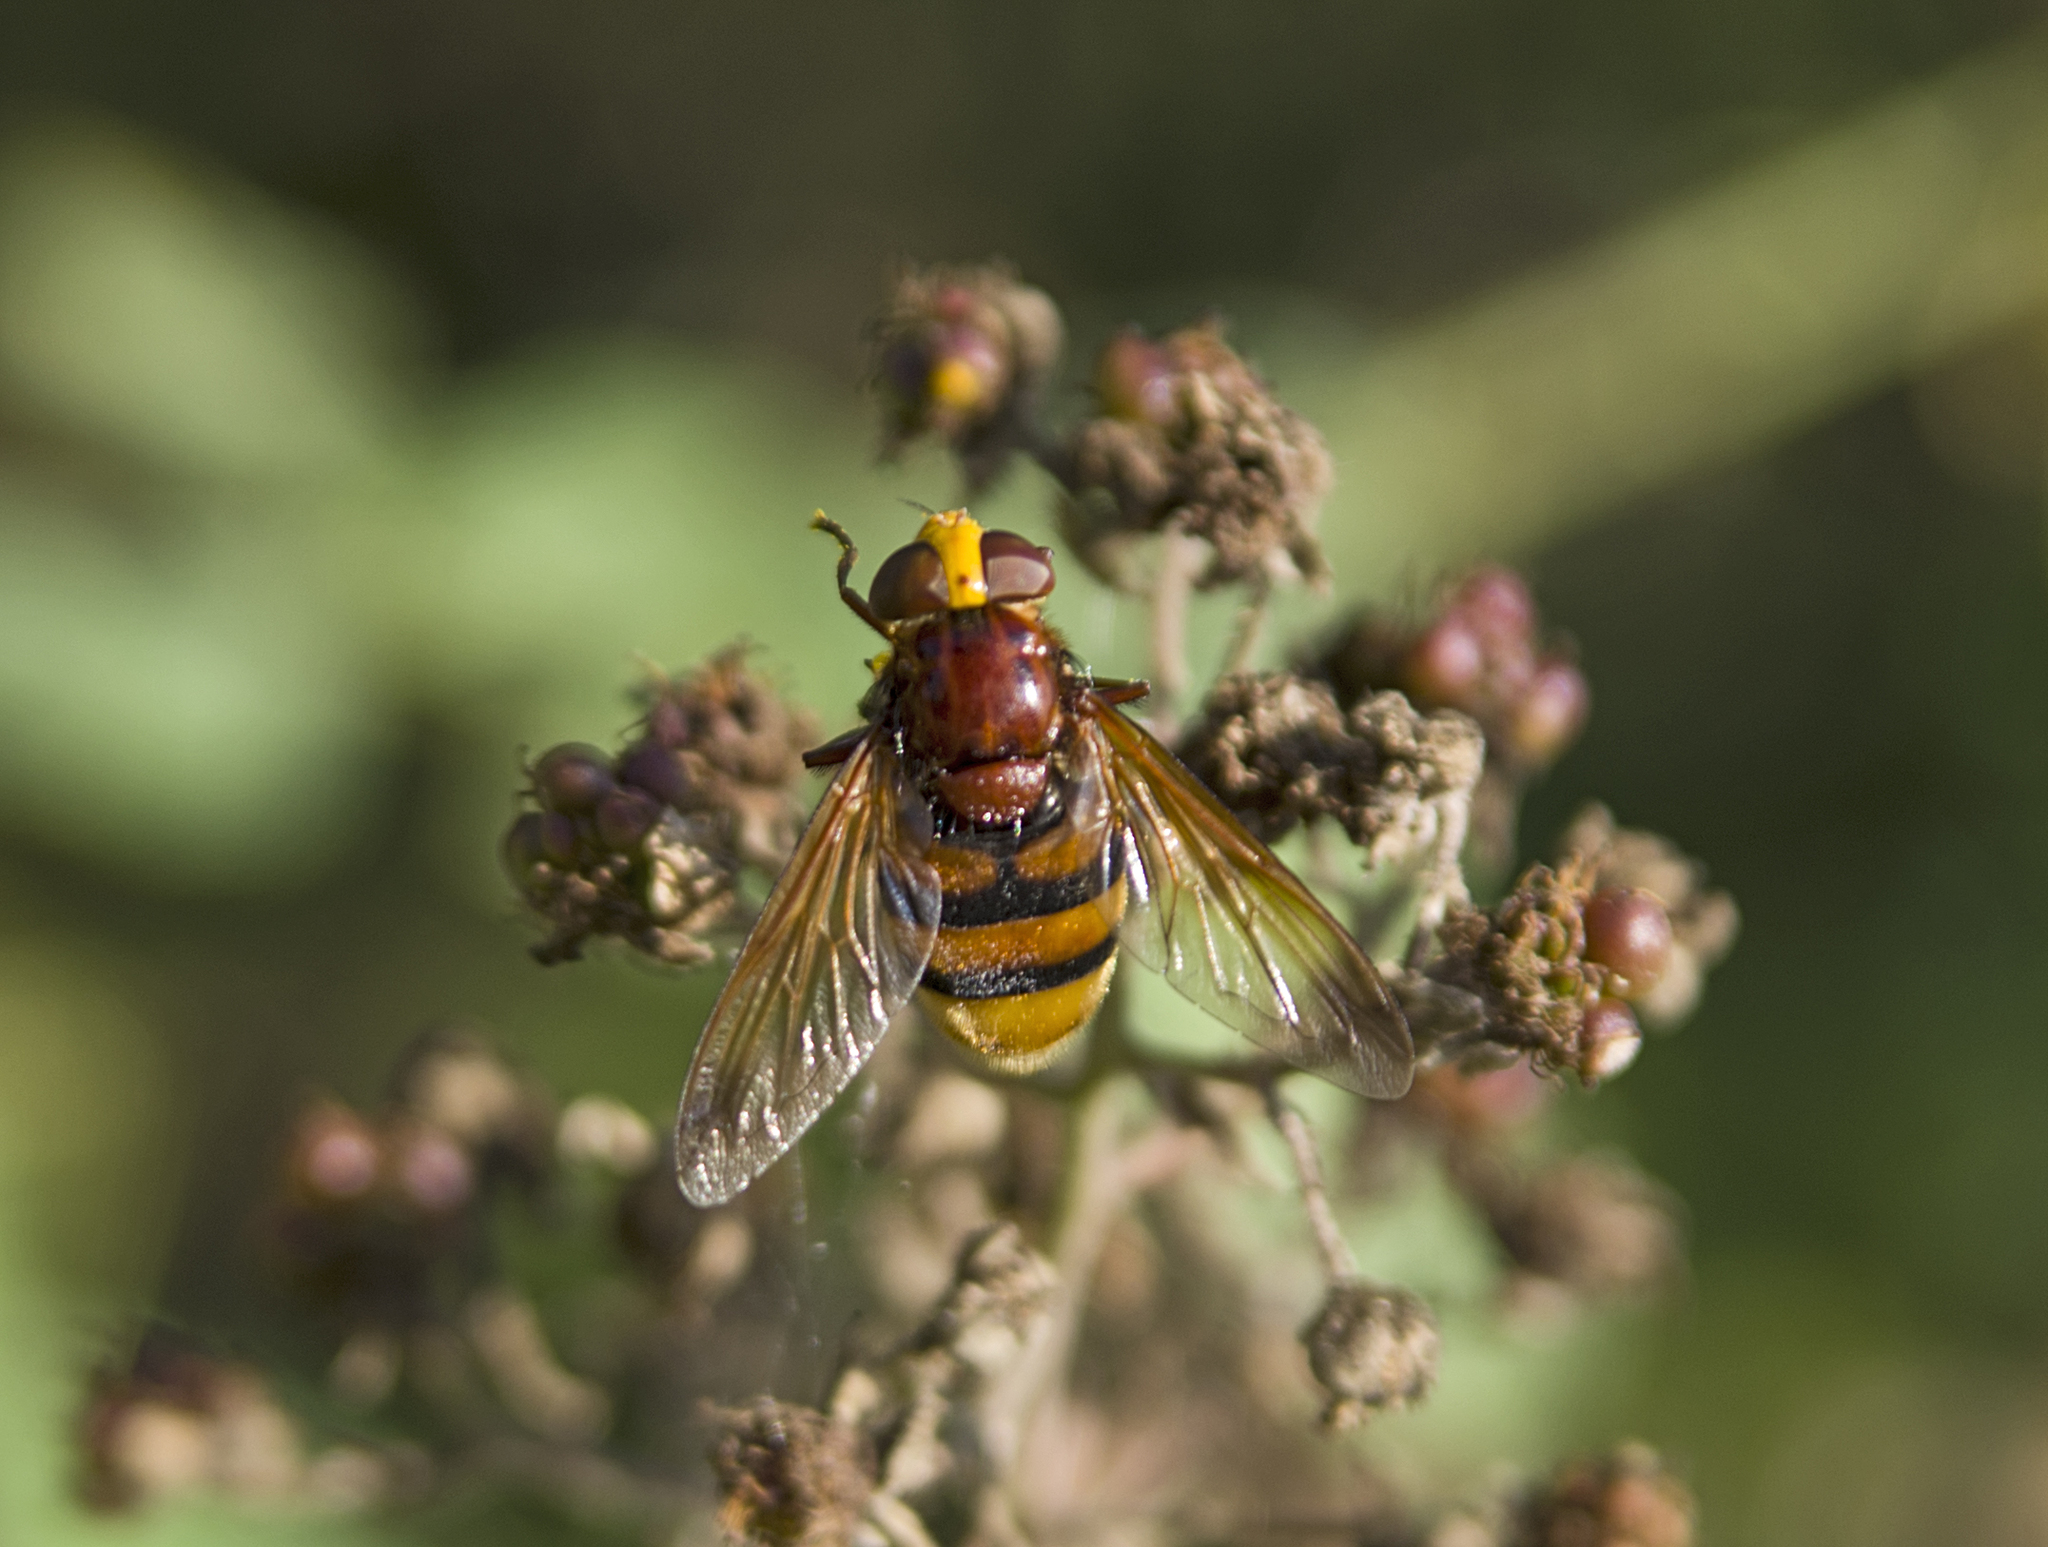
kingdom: Animalia
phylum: Arthropoda
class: Insecta
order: Diptera
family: Syrphidae
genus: Volucella
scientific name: Volucella zonaria
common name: Hornet hoverfly
